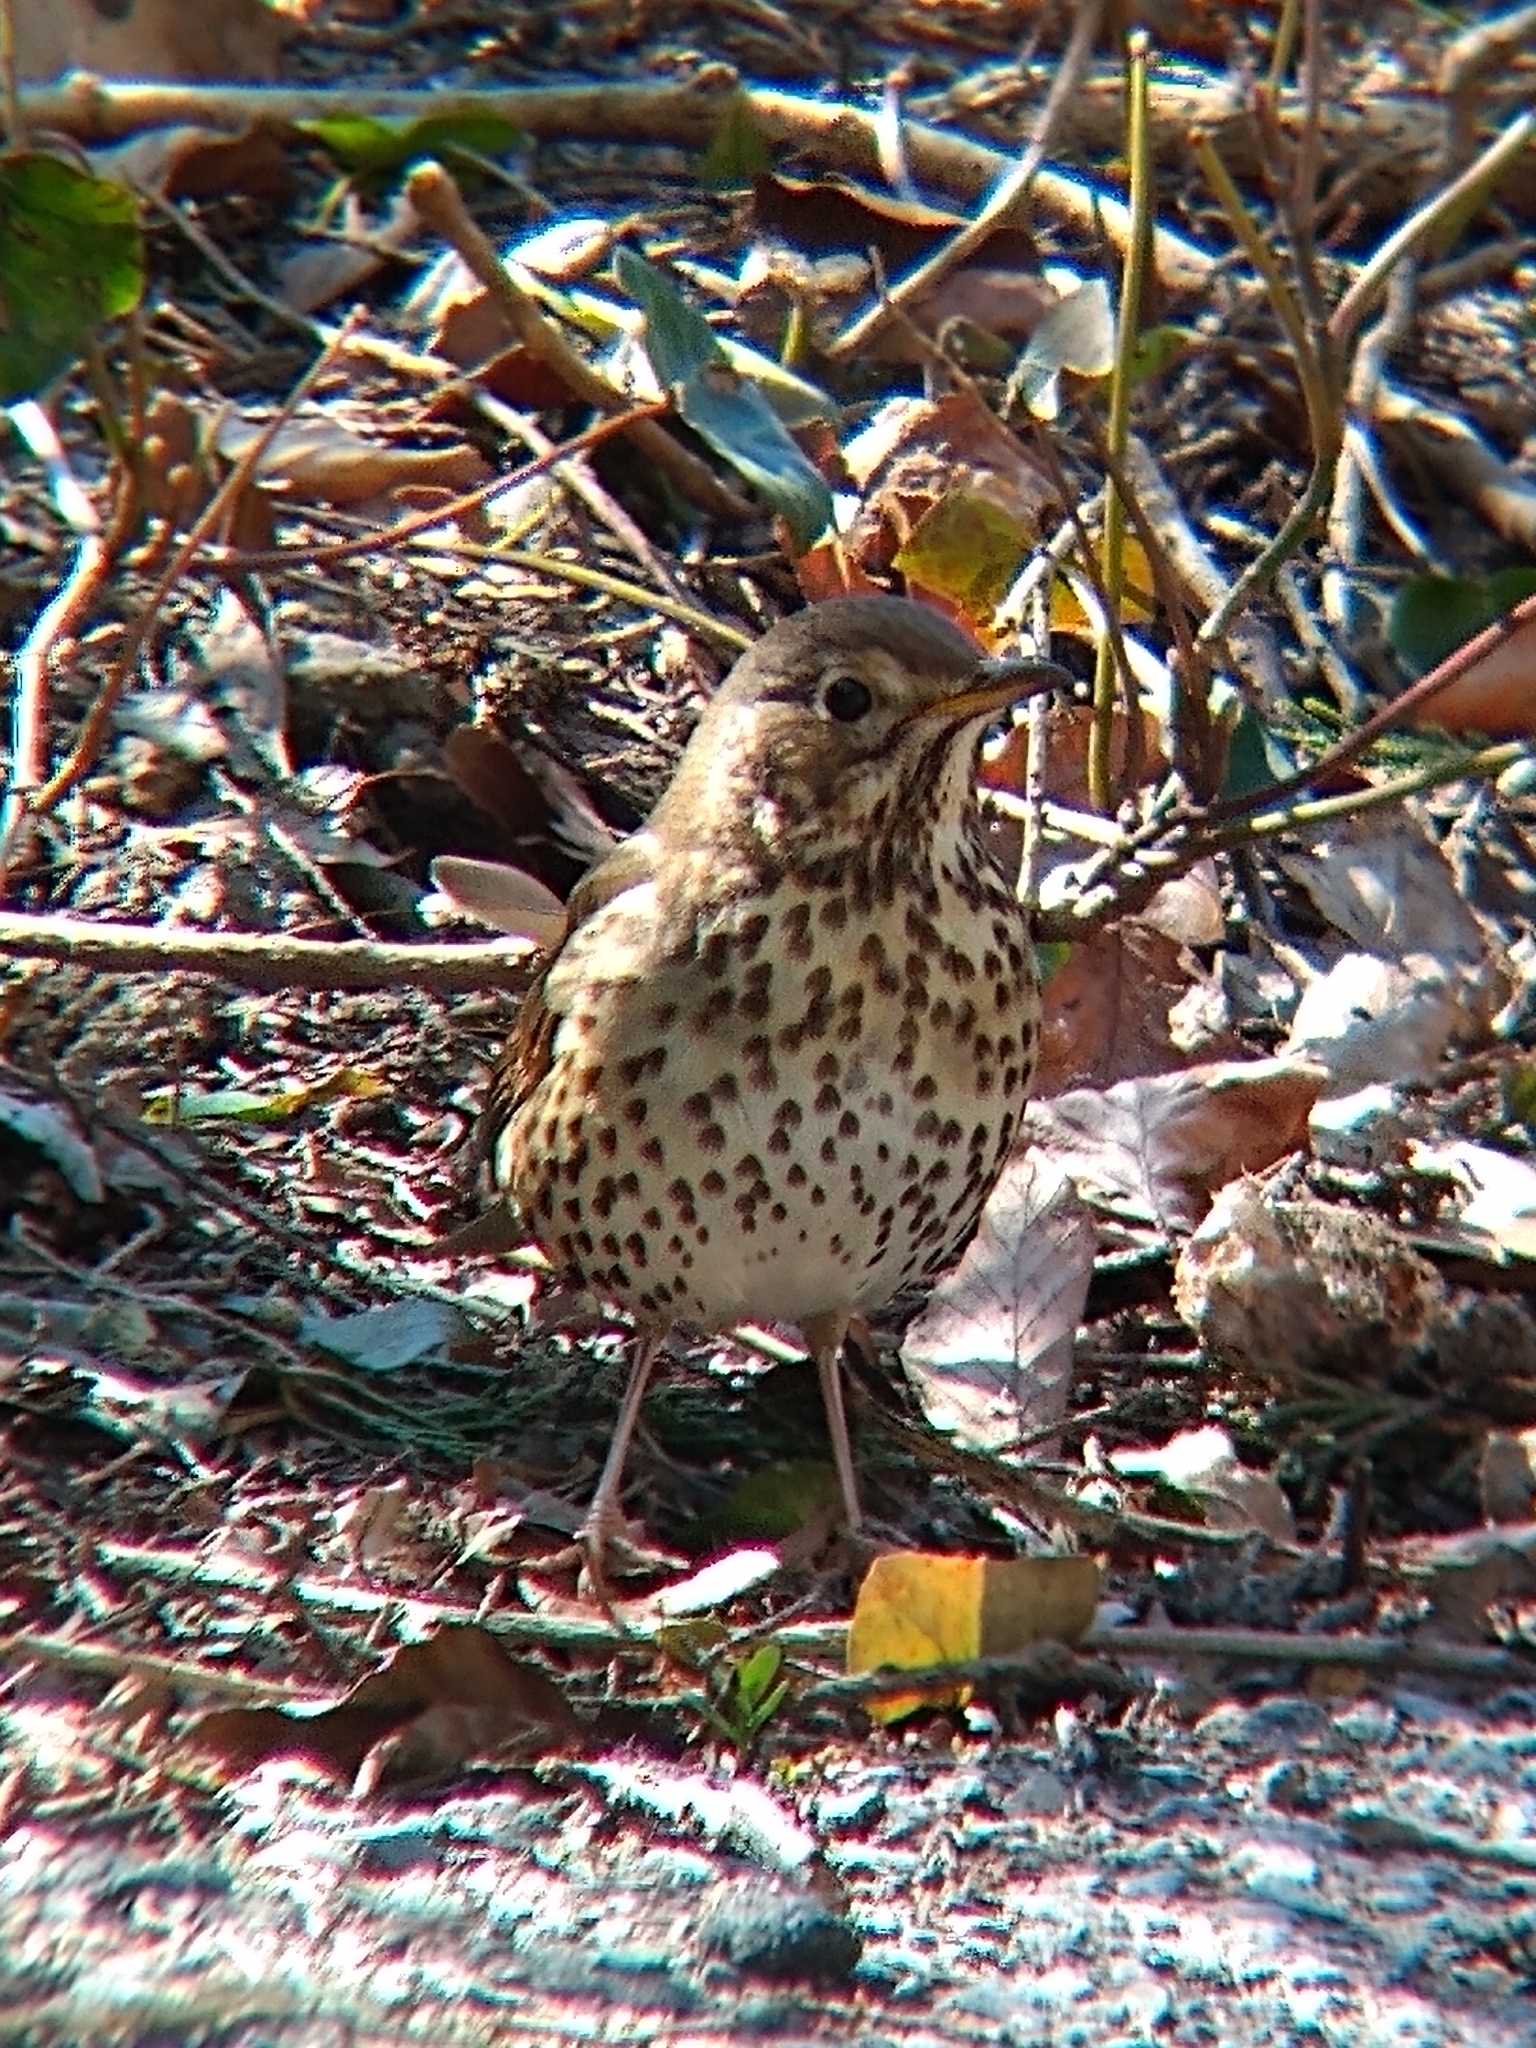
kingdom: Animalia
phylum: Chordata
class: Aves
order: Passeriformes
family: Turdidae
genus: Turdus
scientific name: Turdus philomelos
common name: Song thrush
